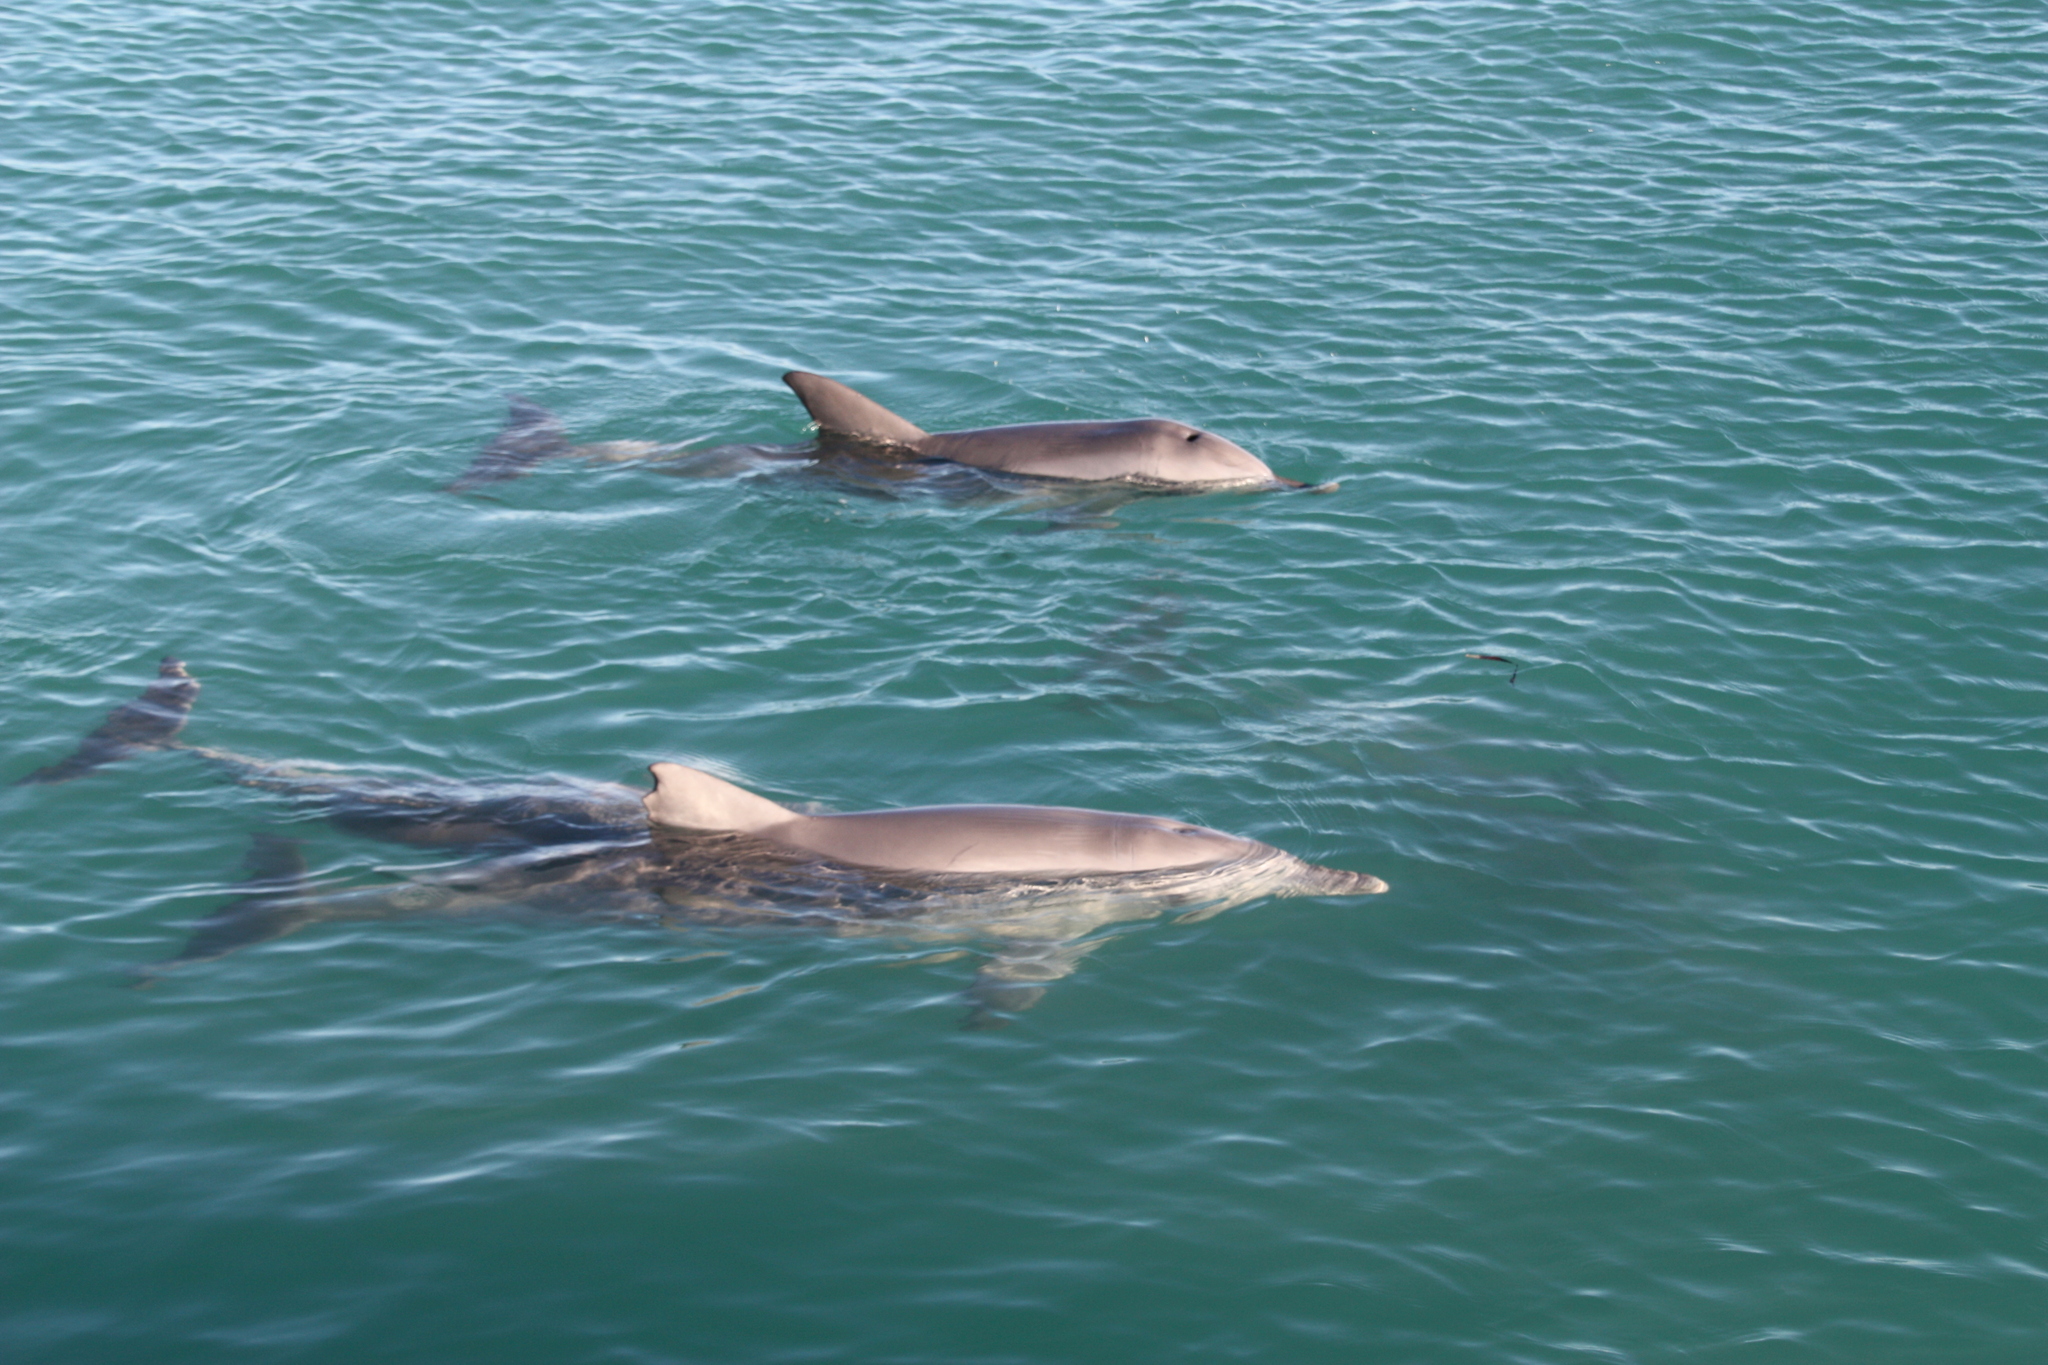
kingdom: Animalia
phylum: Chordata
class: Mammalia
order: Cetacea
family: Delphinidae
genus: Tursiops
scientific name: Tursiops aduncus
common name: Indo-pacific bottlenose dolphin
